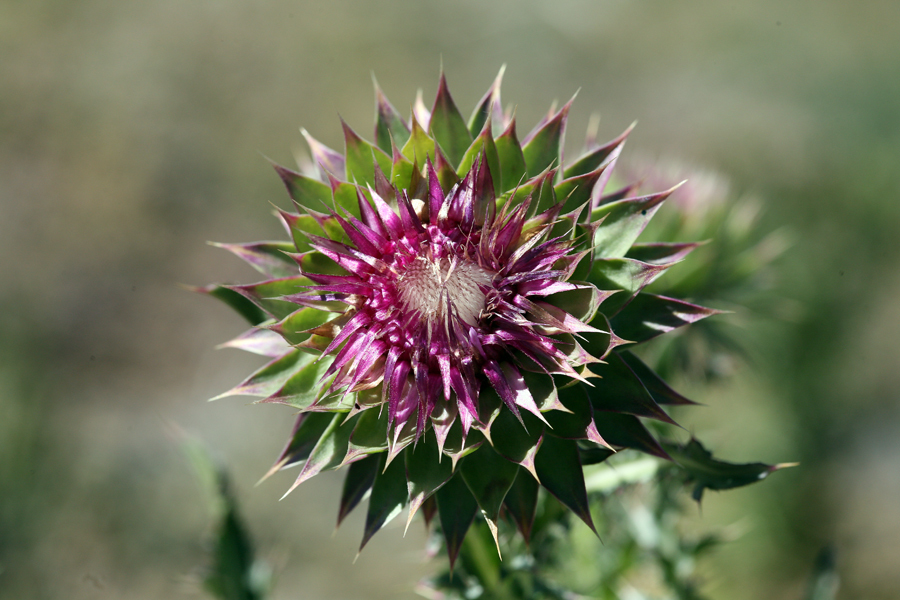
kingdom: Plantae
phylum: Tracheophyta
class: Magnoliopsida
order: Asterales
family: Asteraceae
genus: Carduus
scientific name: Carduus nutans
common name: Musk thistle
